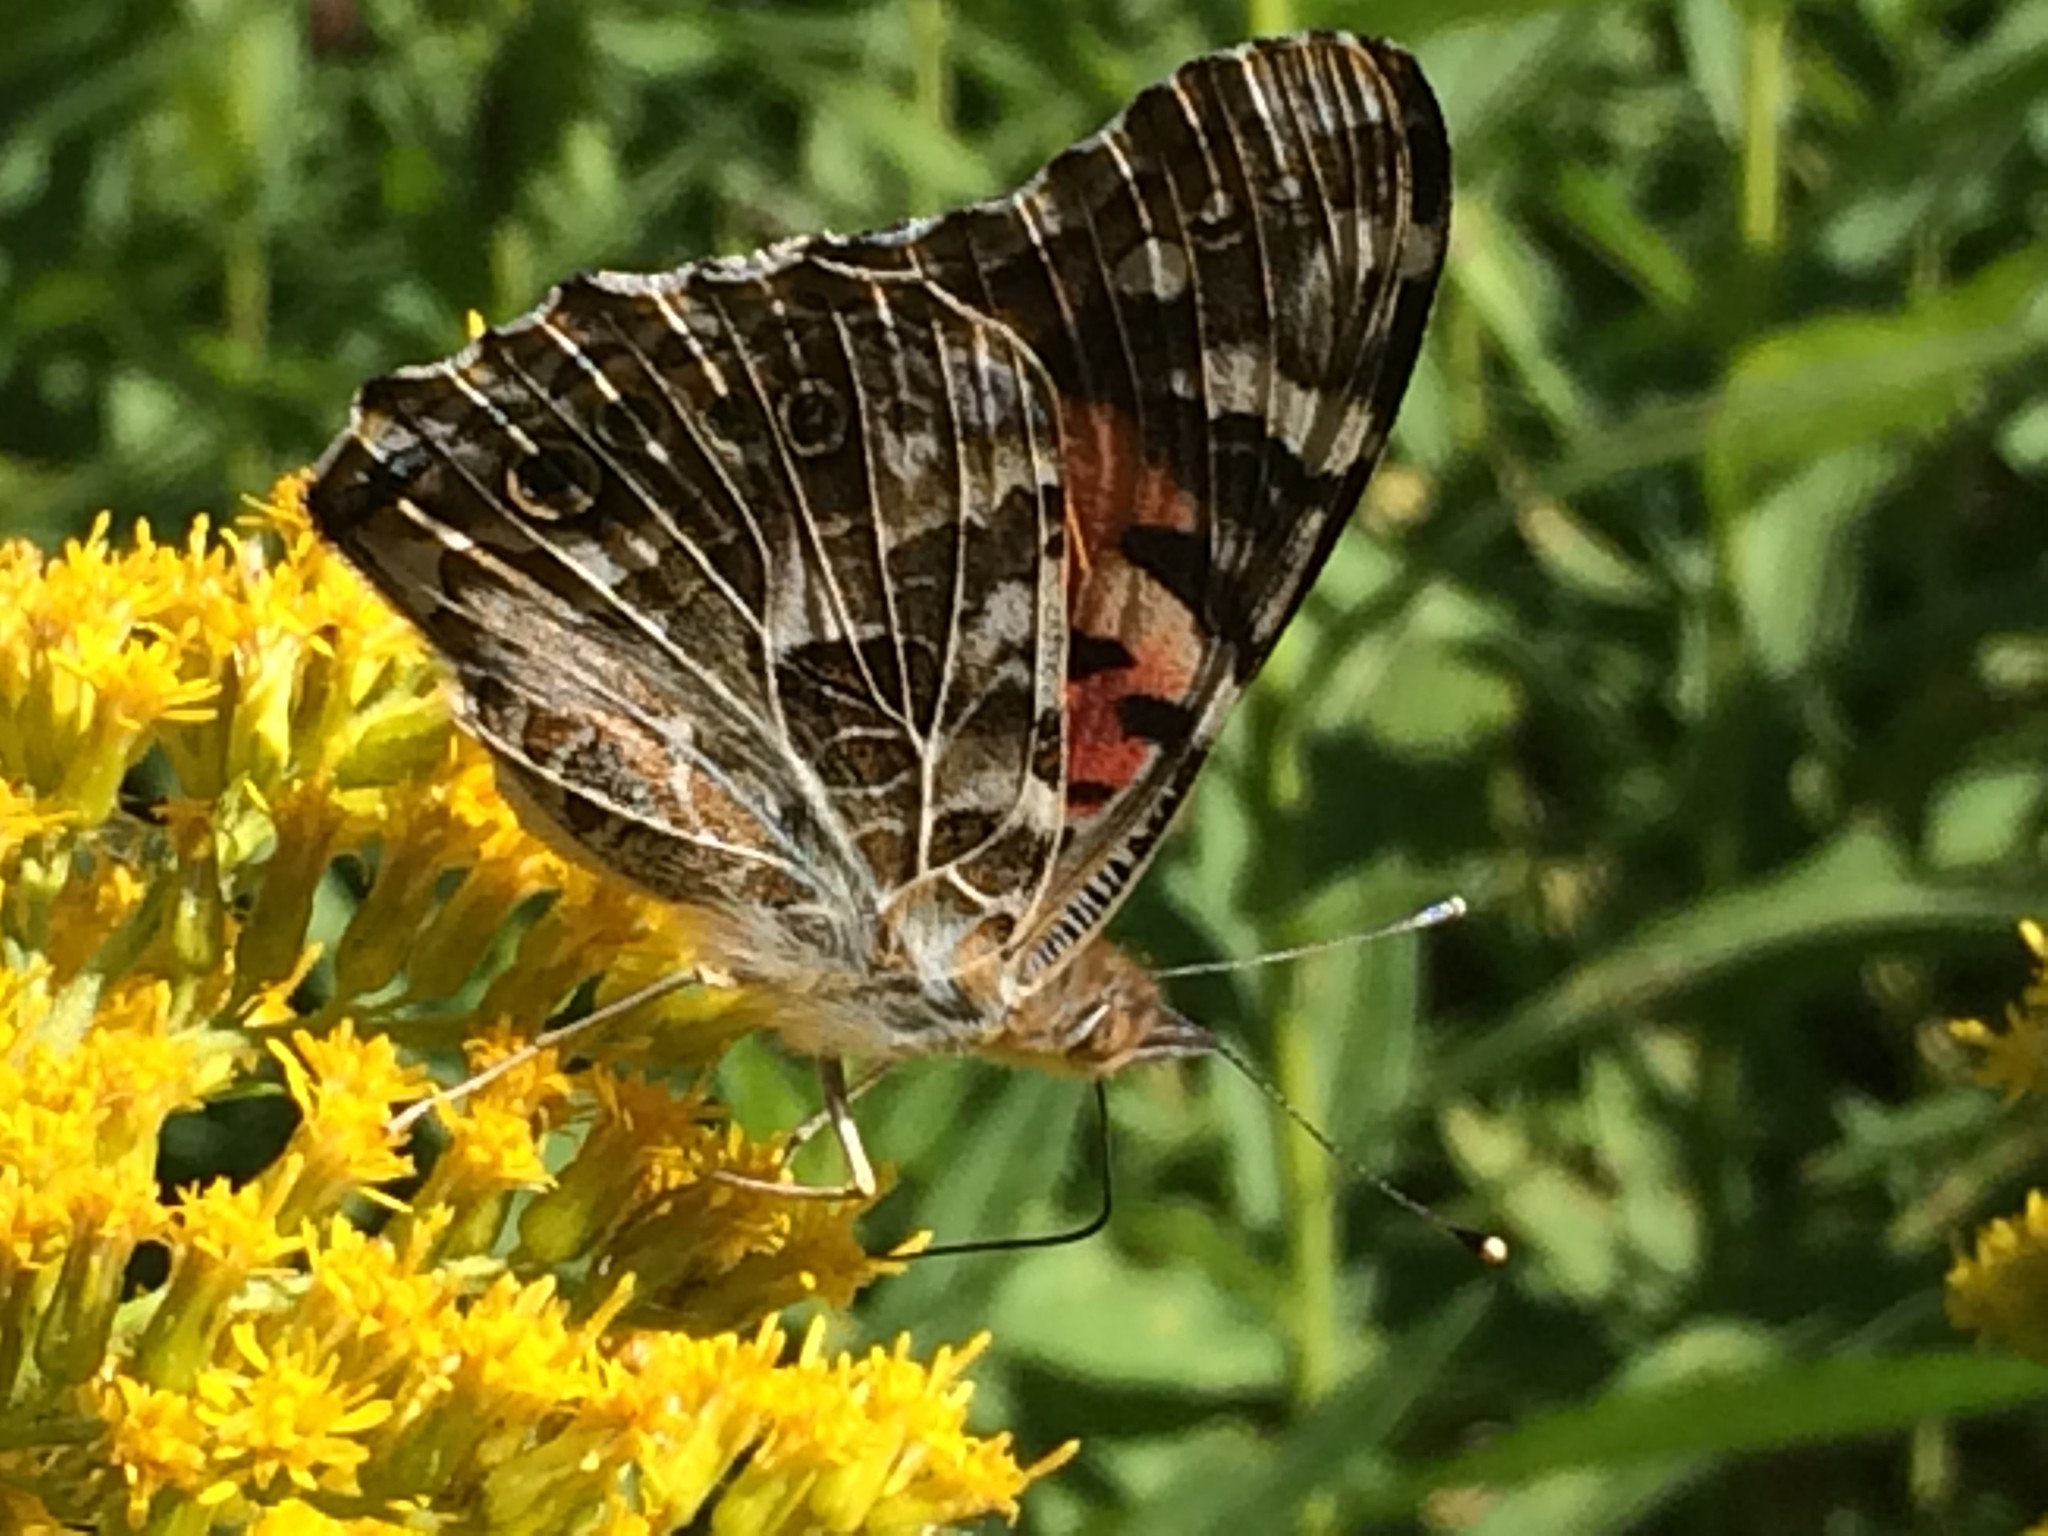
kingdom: Animalia
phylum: Arthropoda
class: Insecta
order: Lepidoptera
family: Nymphalidae
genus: Vanessa
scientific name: Vanessa cardui
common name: Painted lady
